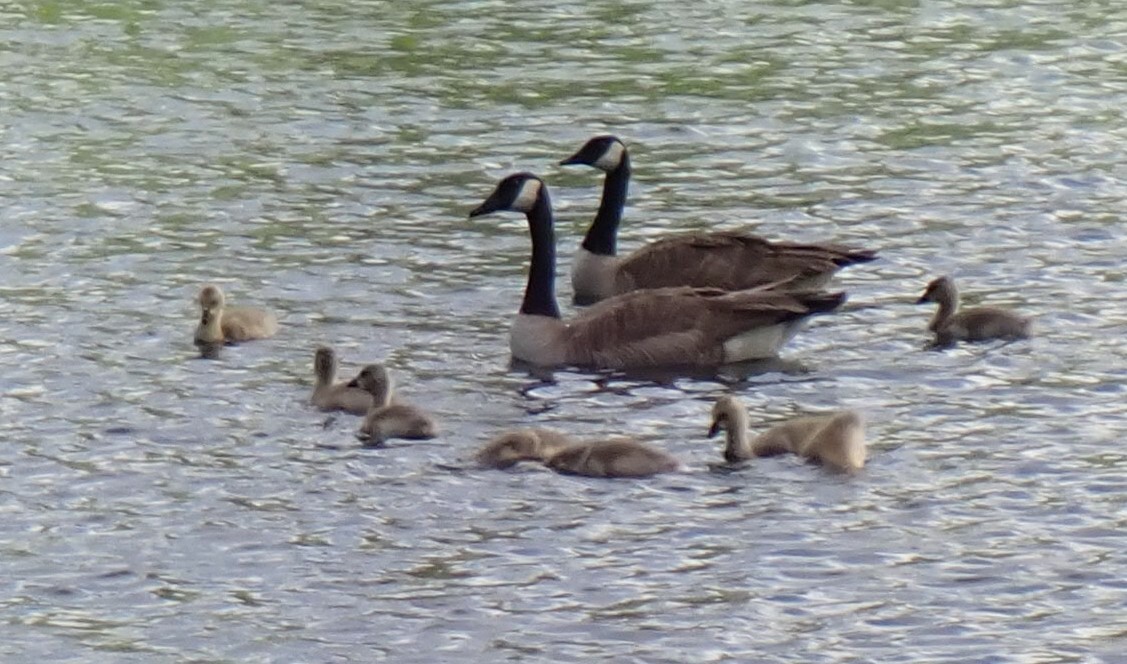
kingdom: Animalia
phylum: Chordata
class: Aves
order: Anseriformes
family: Anatidae
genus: Branta
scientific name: Branta canadensis
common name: Canada goose
